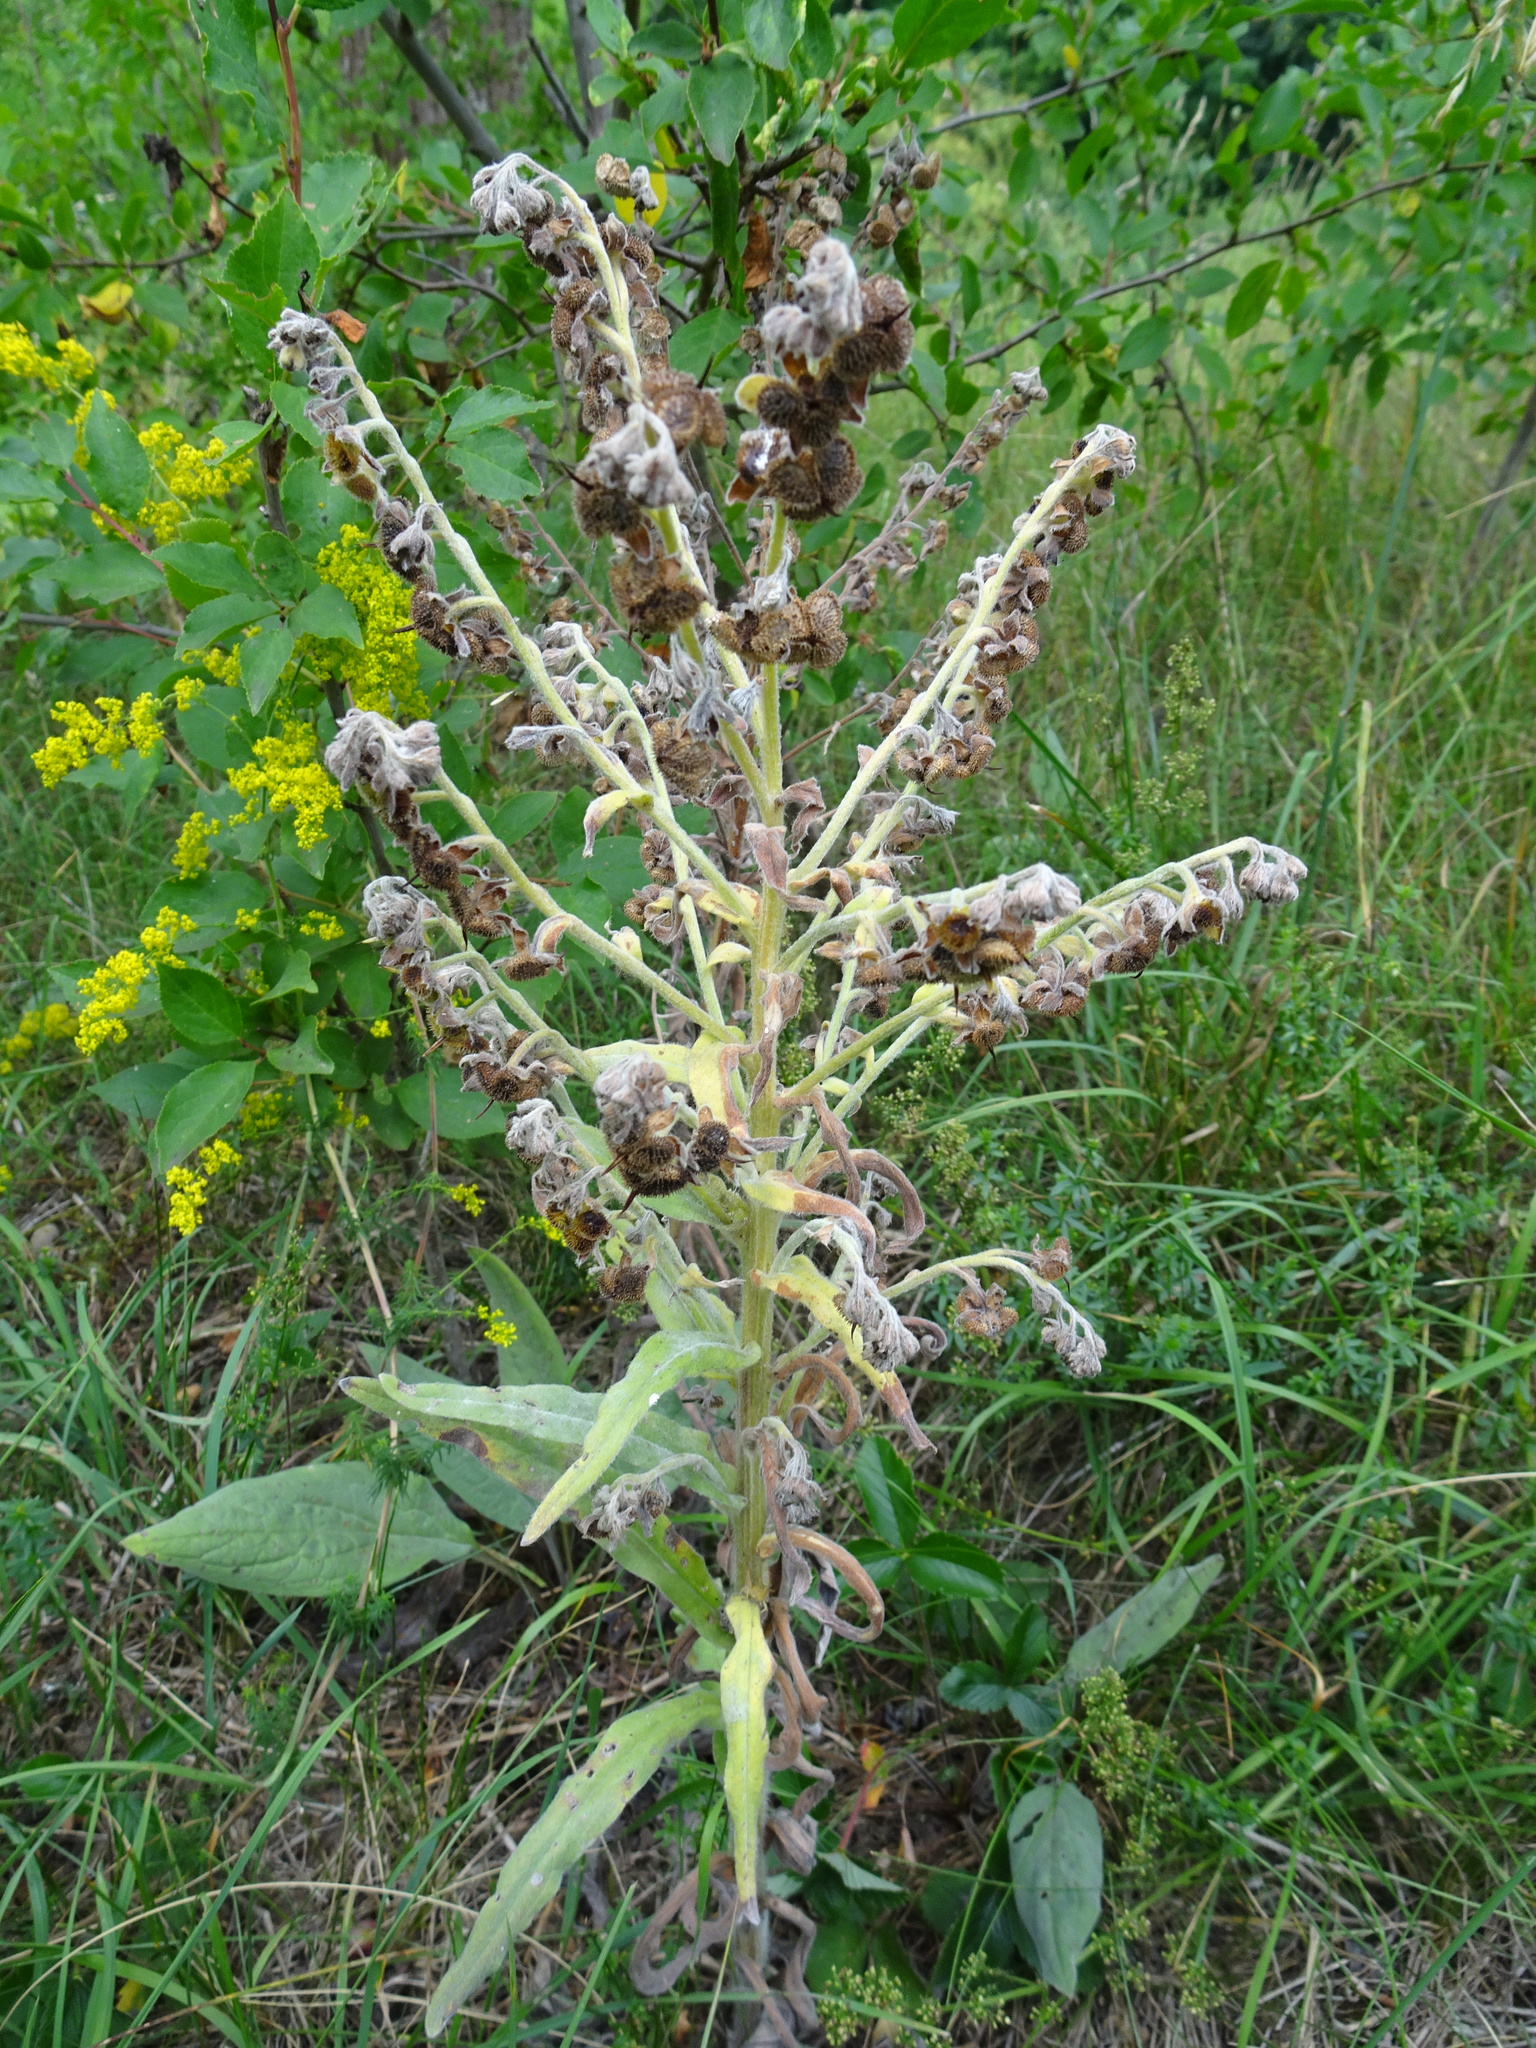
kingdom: Plantae
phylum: Tracheophyta
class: Magnoliopsida
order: Boraginales
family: Boraginaceae
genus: Cynoglossum
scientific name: Cynoglossum officinale
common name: Hound's-tongue
